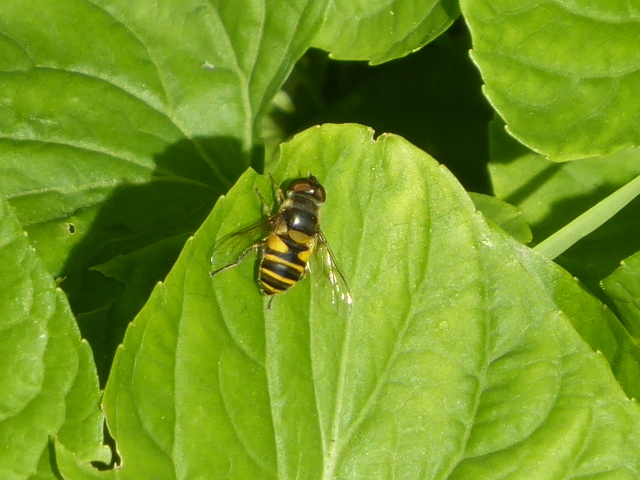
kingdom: Animalia
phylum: Arthropoda
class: Insecta
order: Diptera
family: Syrphidae
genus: Eristalis
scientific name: Eristalis transversa
